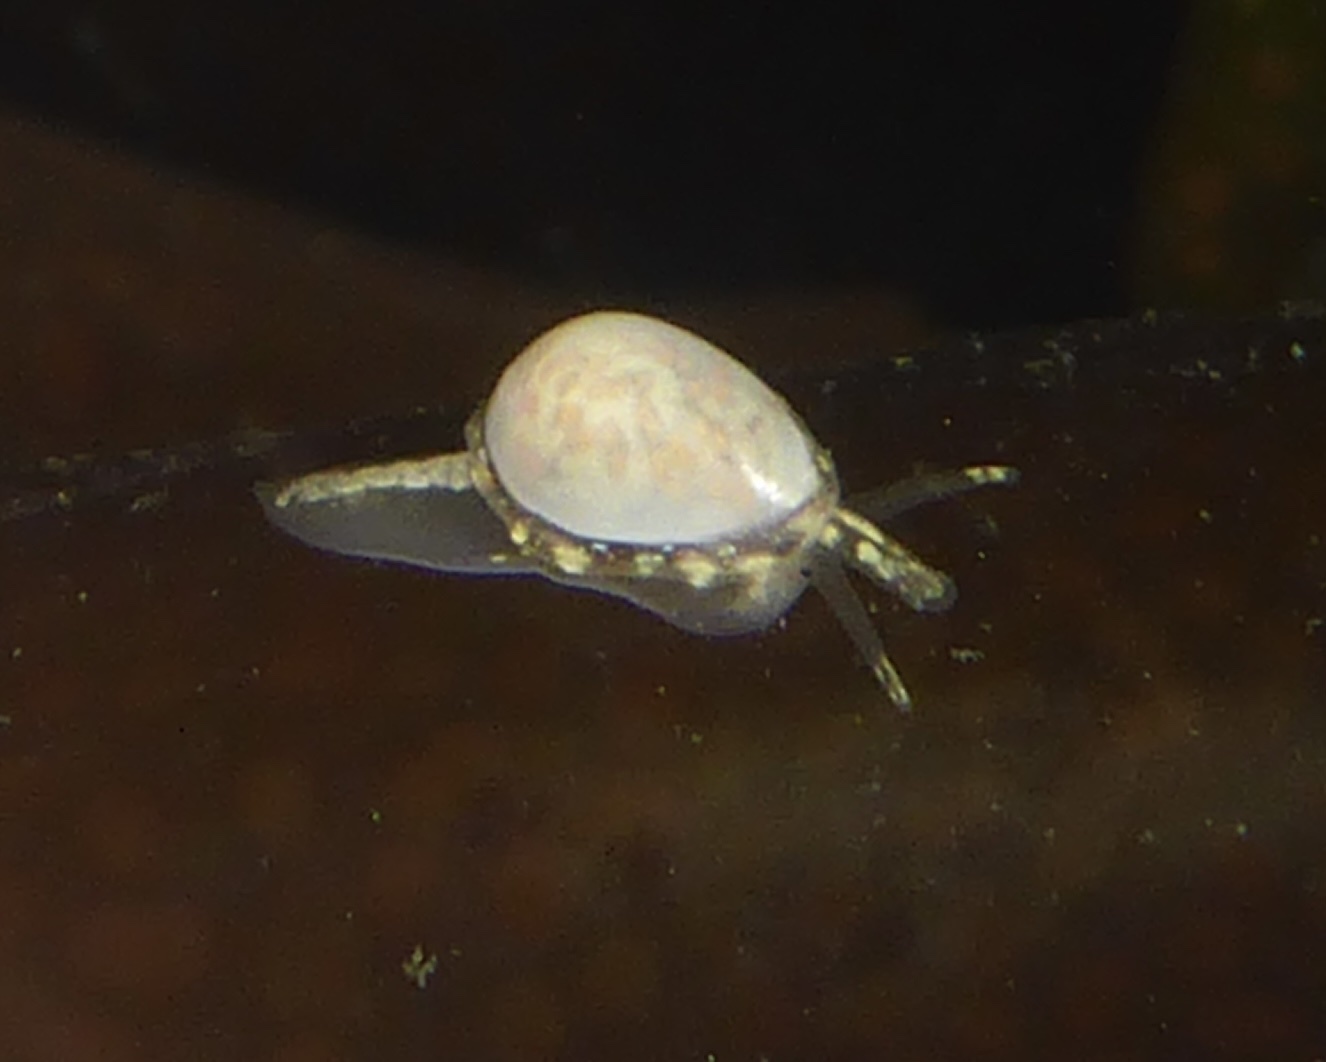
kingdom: Animalia
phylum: Mollusca
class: Gastropoda
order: Neogastropoda
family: Granulinidae
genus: Granulina
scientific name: Granulina margaritula
